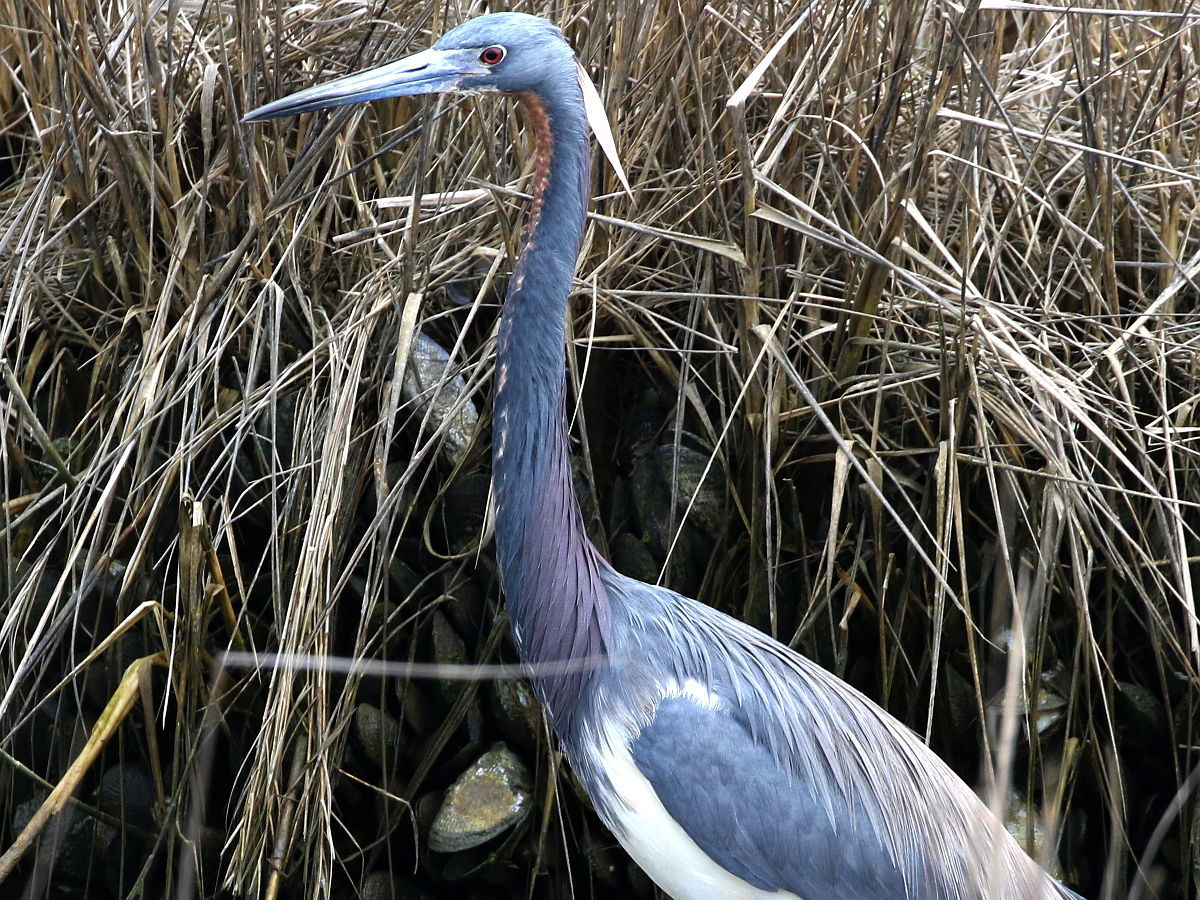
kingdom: Animalia
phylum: Chordata
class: Aves
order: Pelecaniformes
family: Ardeidae
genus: Egretta
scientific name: Egretta tricolor
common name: Tricolored heron
